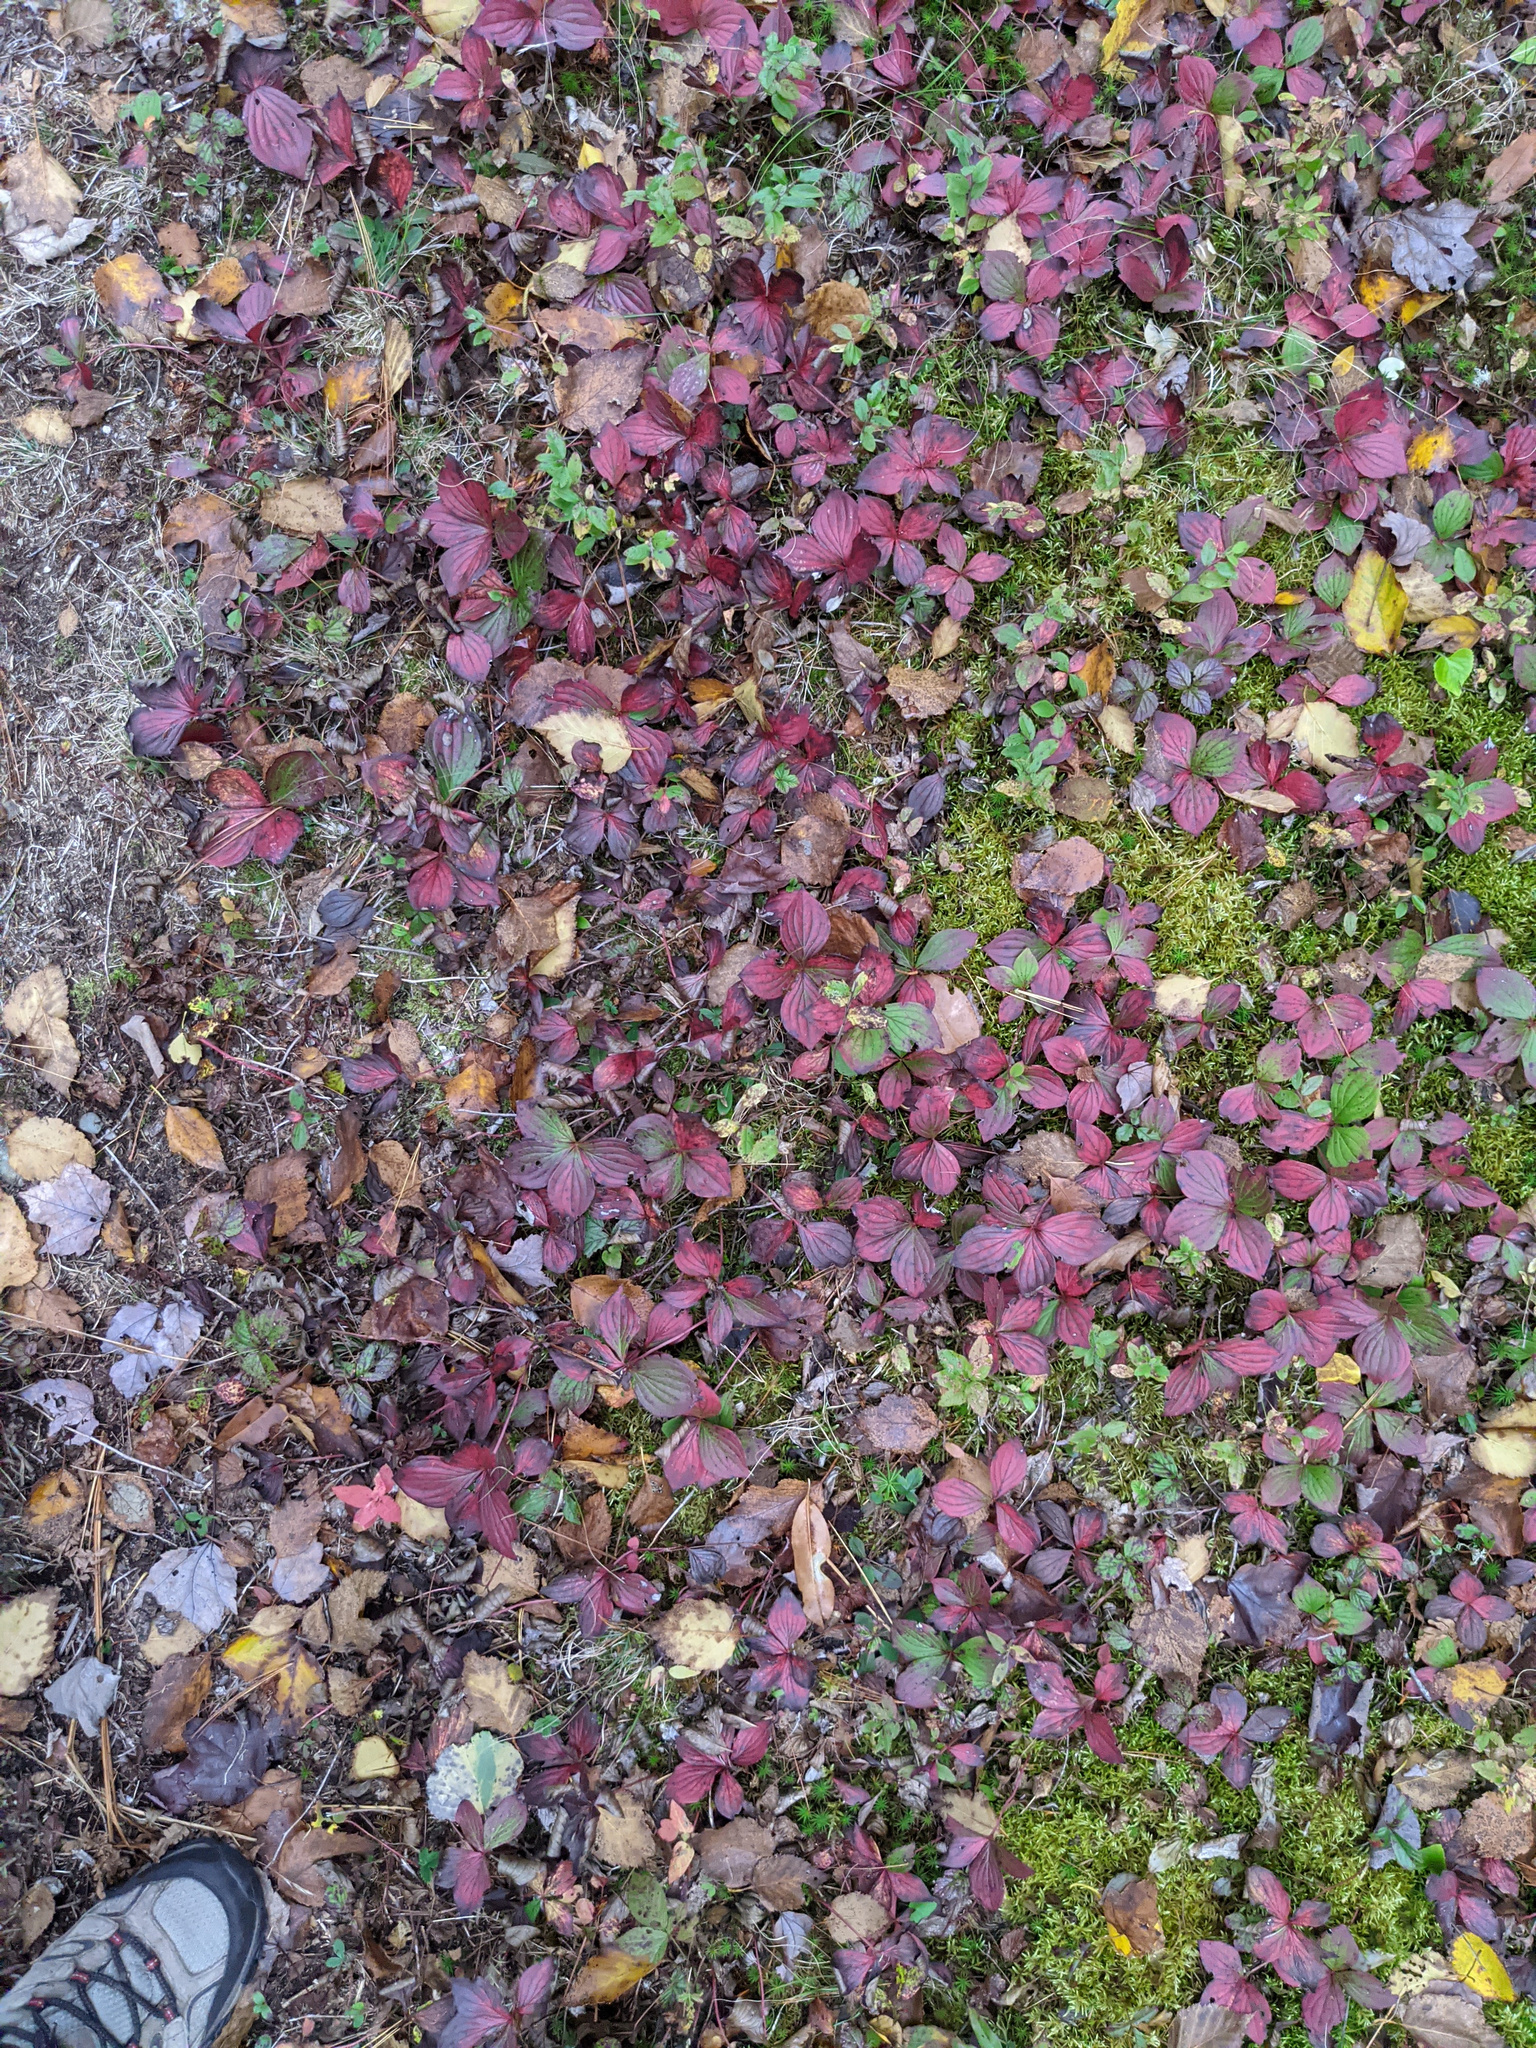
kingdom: Plantae
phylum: Tracheophyta
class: Magnoliopsida
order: Cornales
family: Cornaceae
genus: Cornus
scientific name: Cornus canadensis
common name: Creeping dogwood
